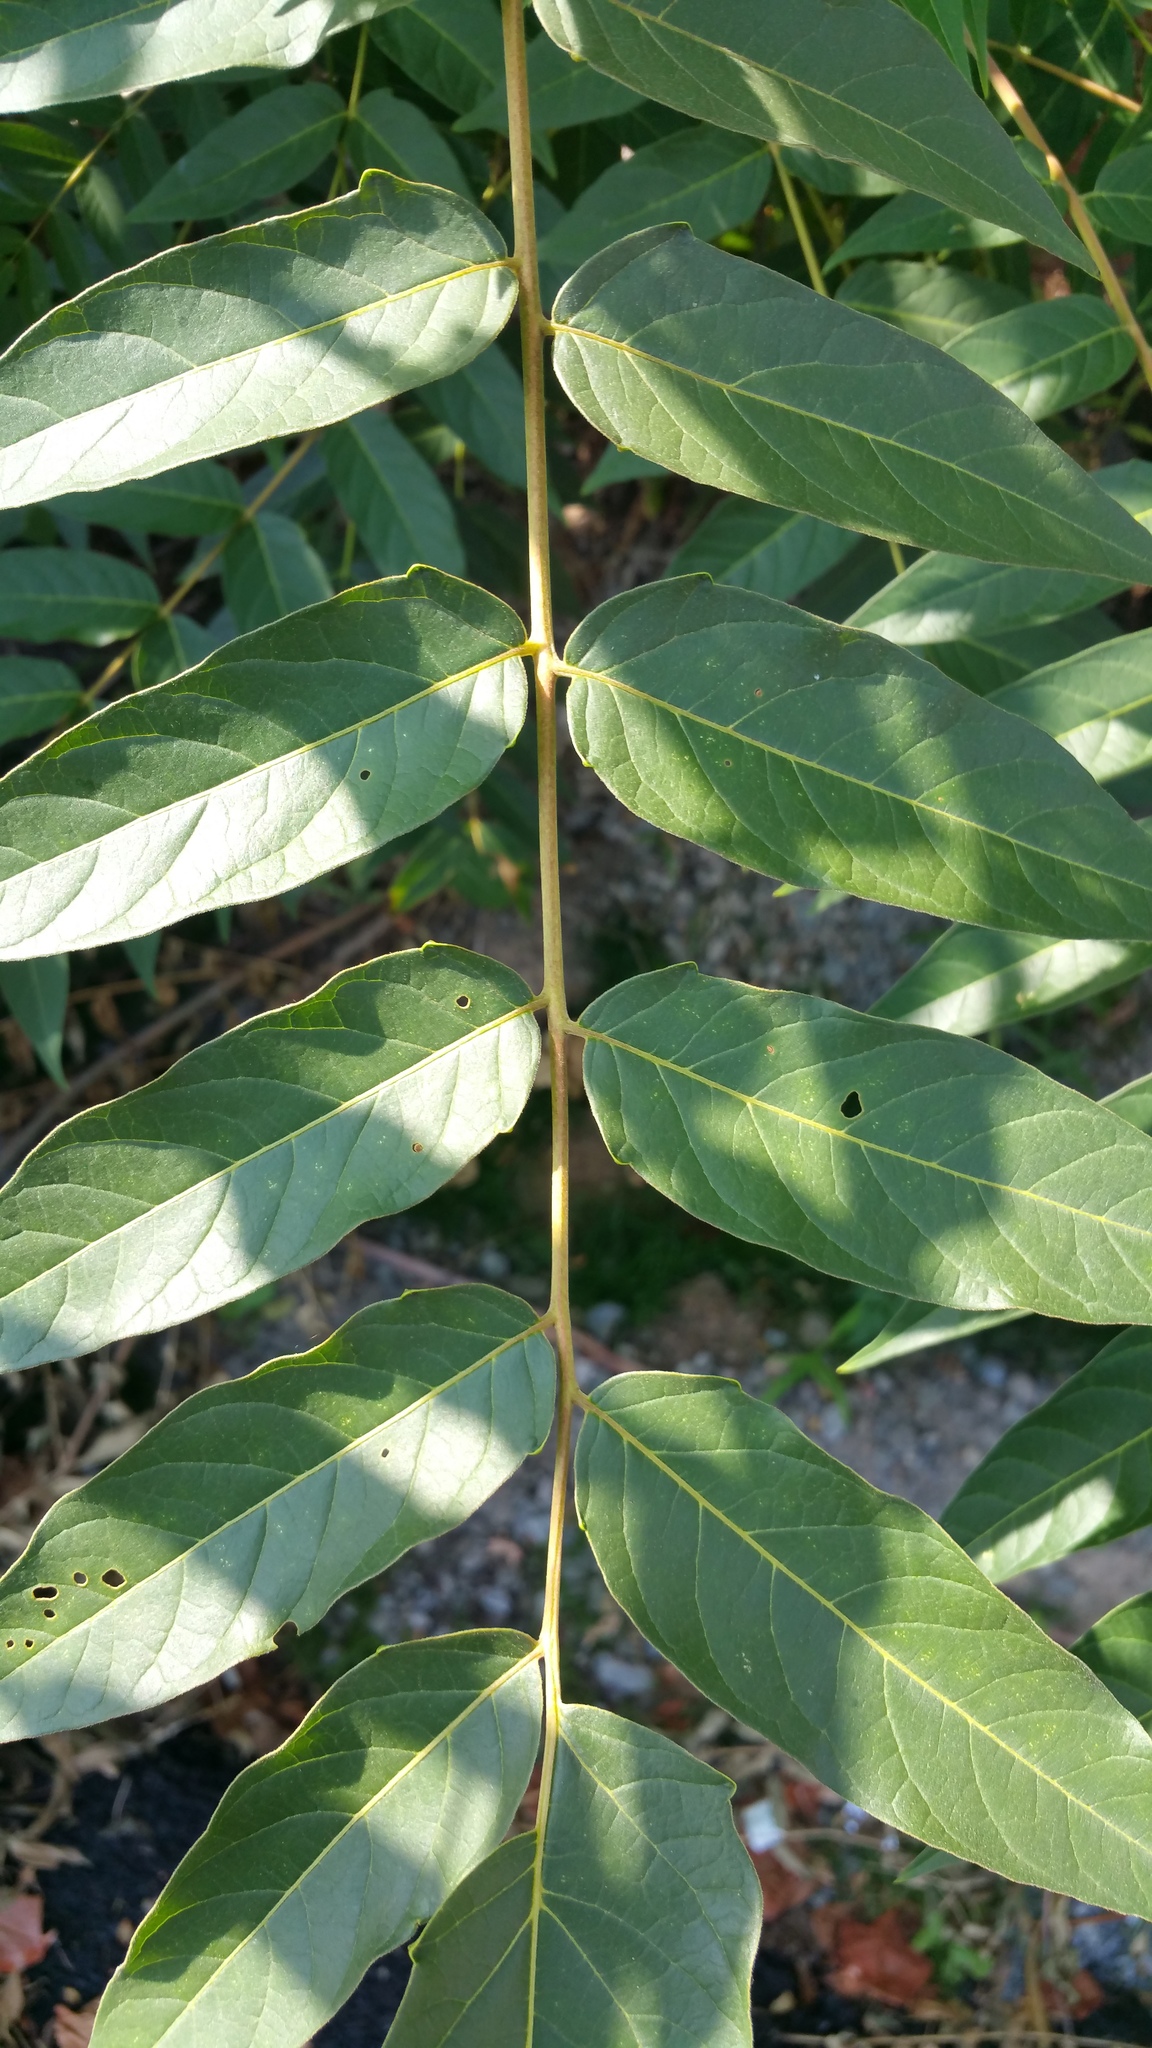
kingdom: Plantae
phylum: Tracheophyta
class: Magnoliopsida
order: Sapindales
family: Simaroubaceae
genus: Ailanthus
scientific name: Ailanthus altissima
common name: Tree-of-heaven
